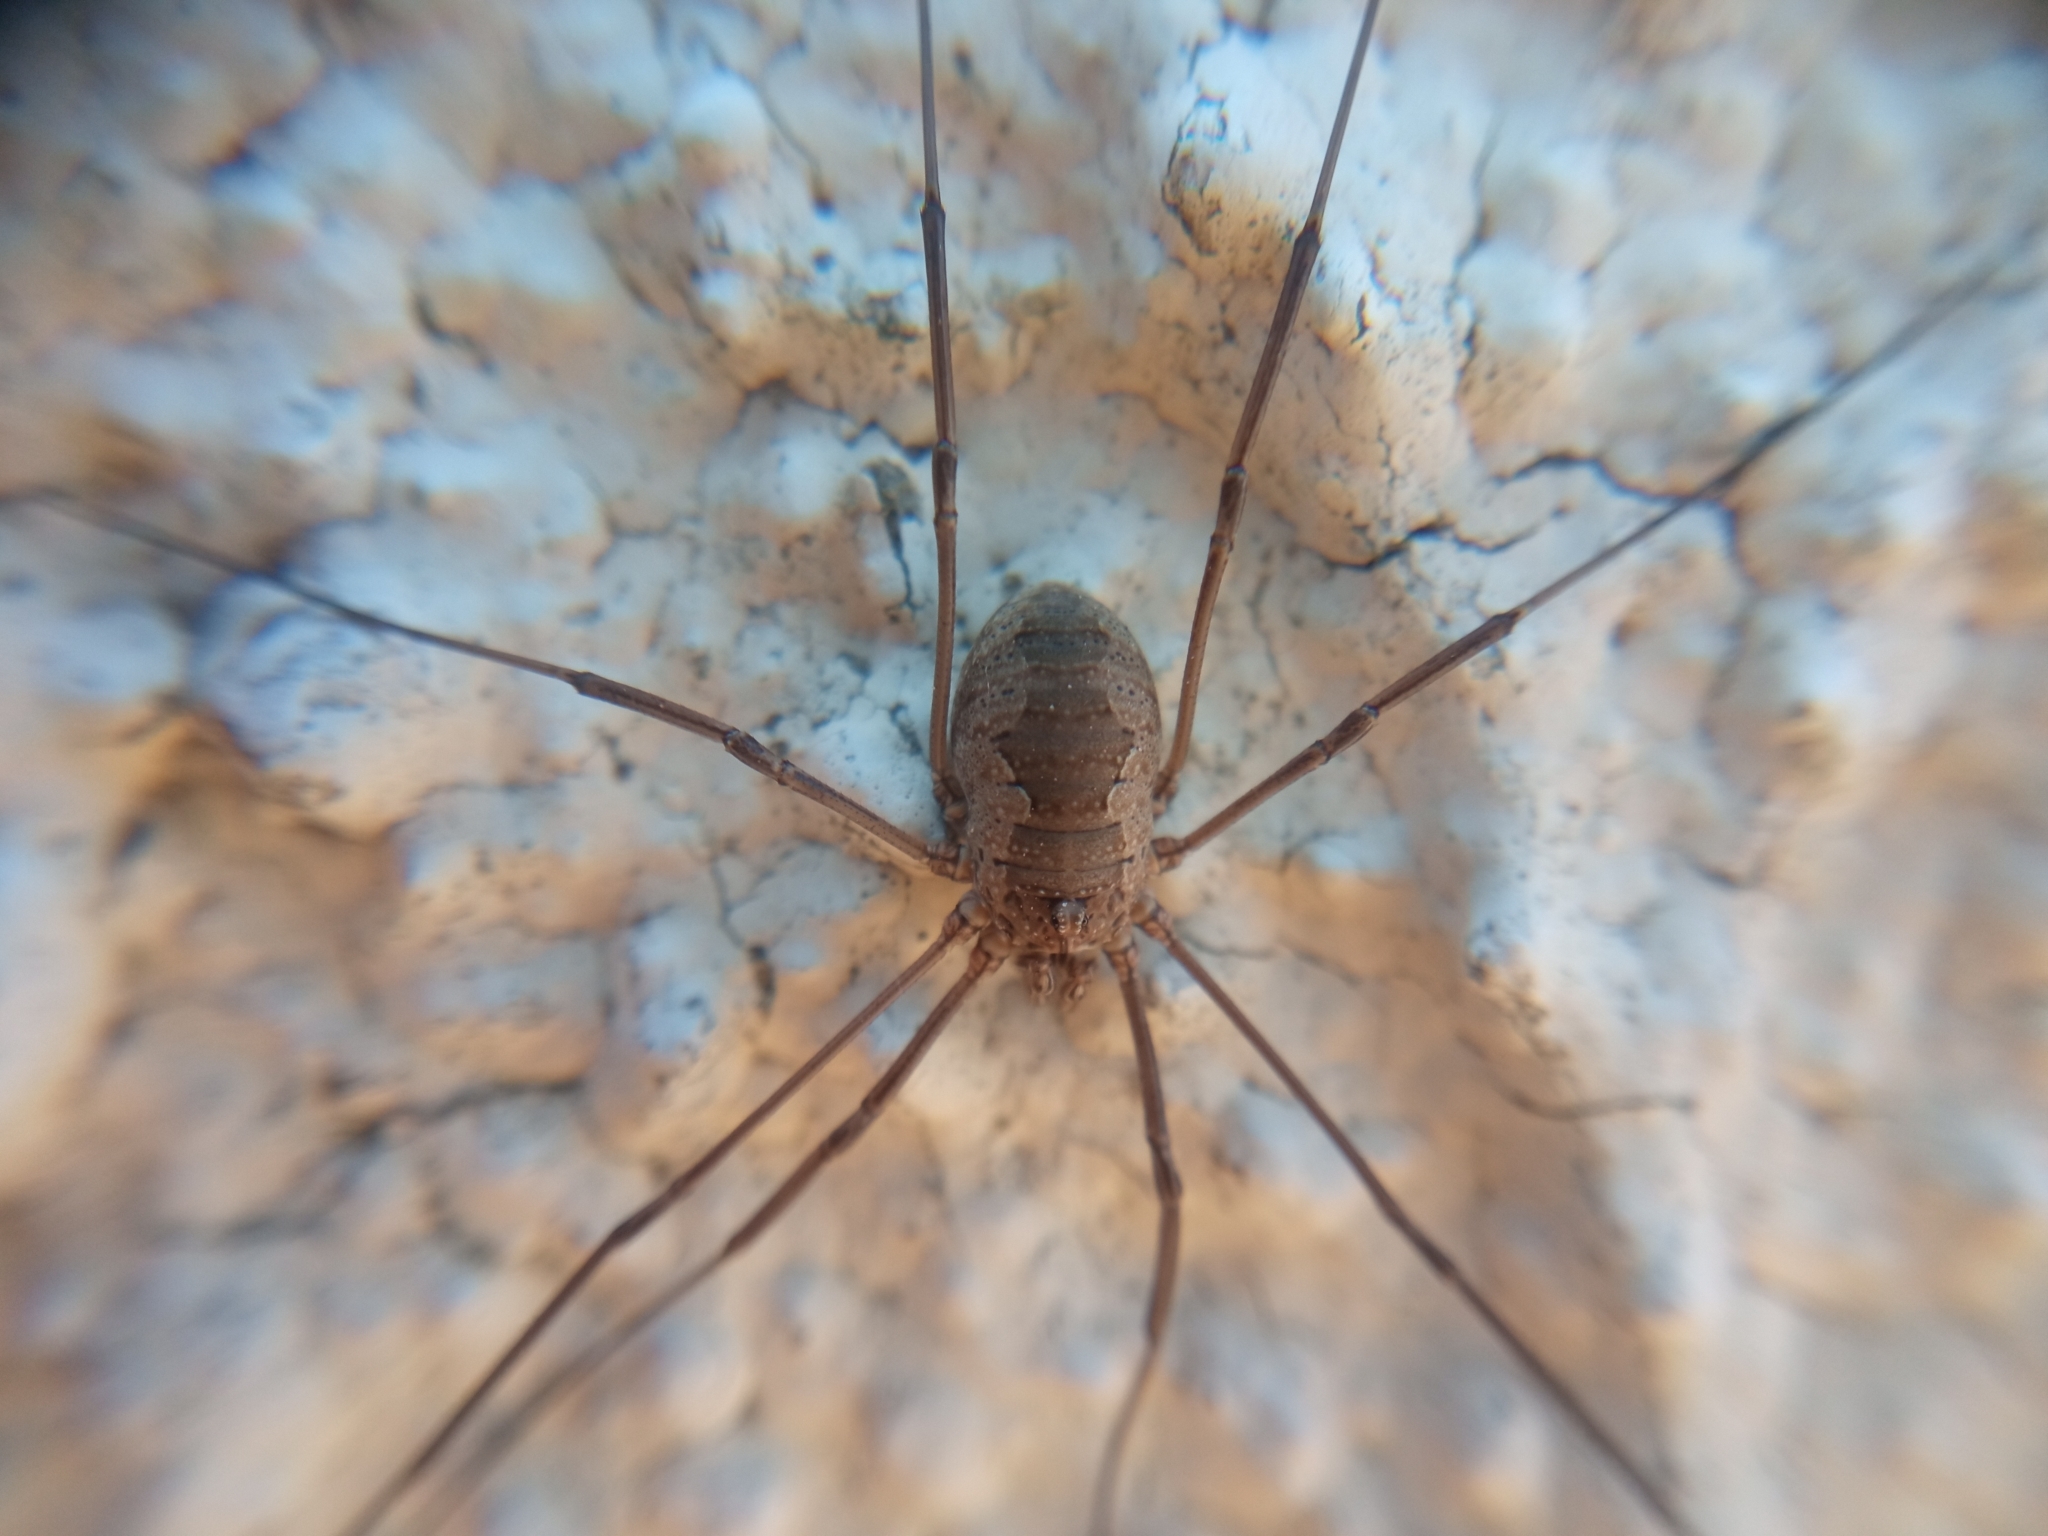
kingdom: Animalia
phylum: Arthropoda
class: Arachnida
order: Opiliones
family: Phalangiidae
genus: Phalangium
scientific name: Phalangium opilio
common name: Daddy longleg
